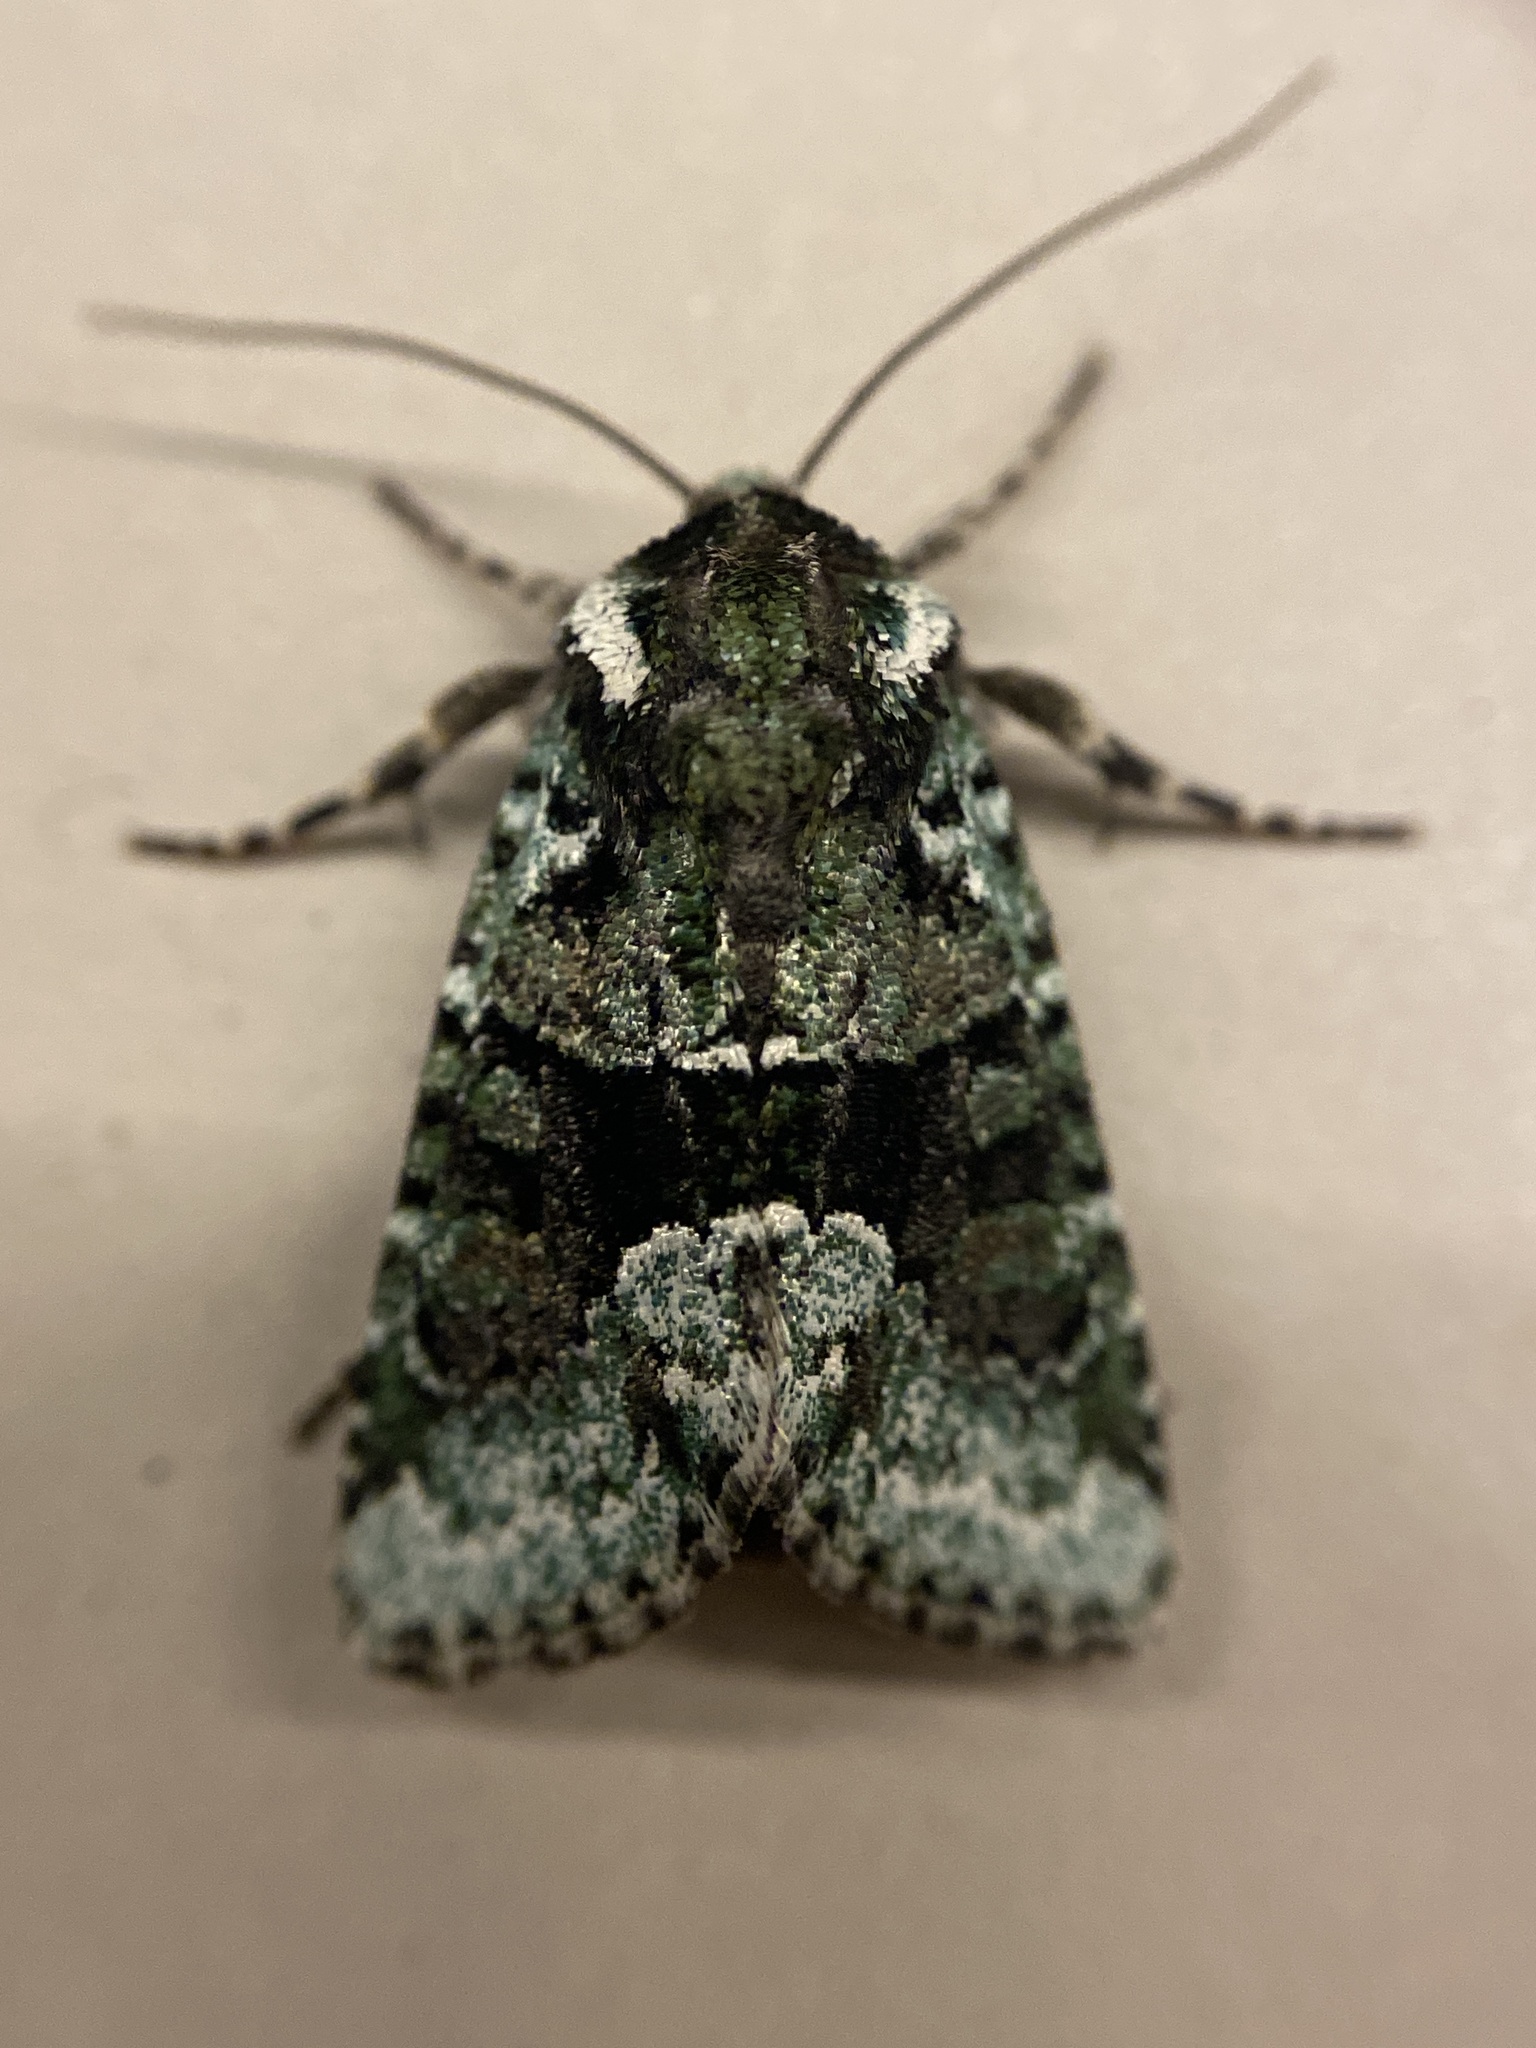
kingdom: Animalia
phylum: Arthropoda
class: Insecta
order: Lepidoptera
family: Noctuidae
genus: Lacinipolia
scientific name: Lacinipolia explicata
